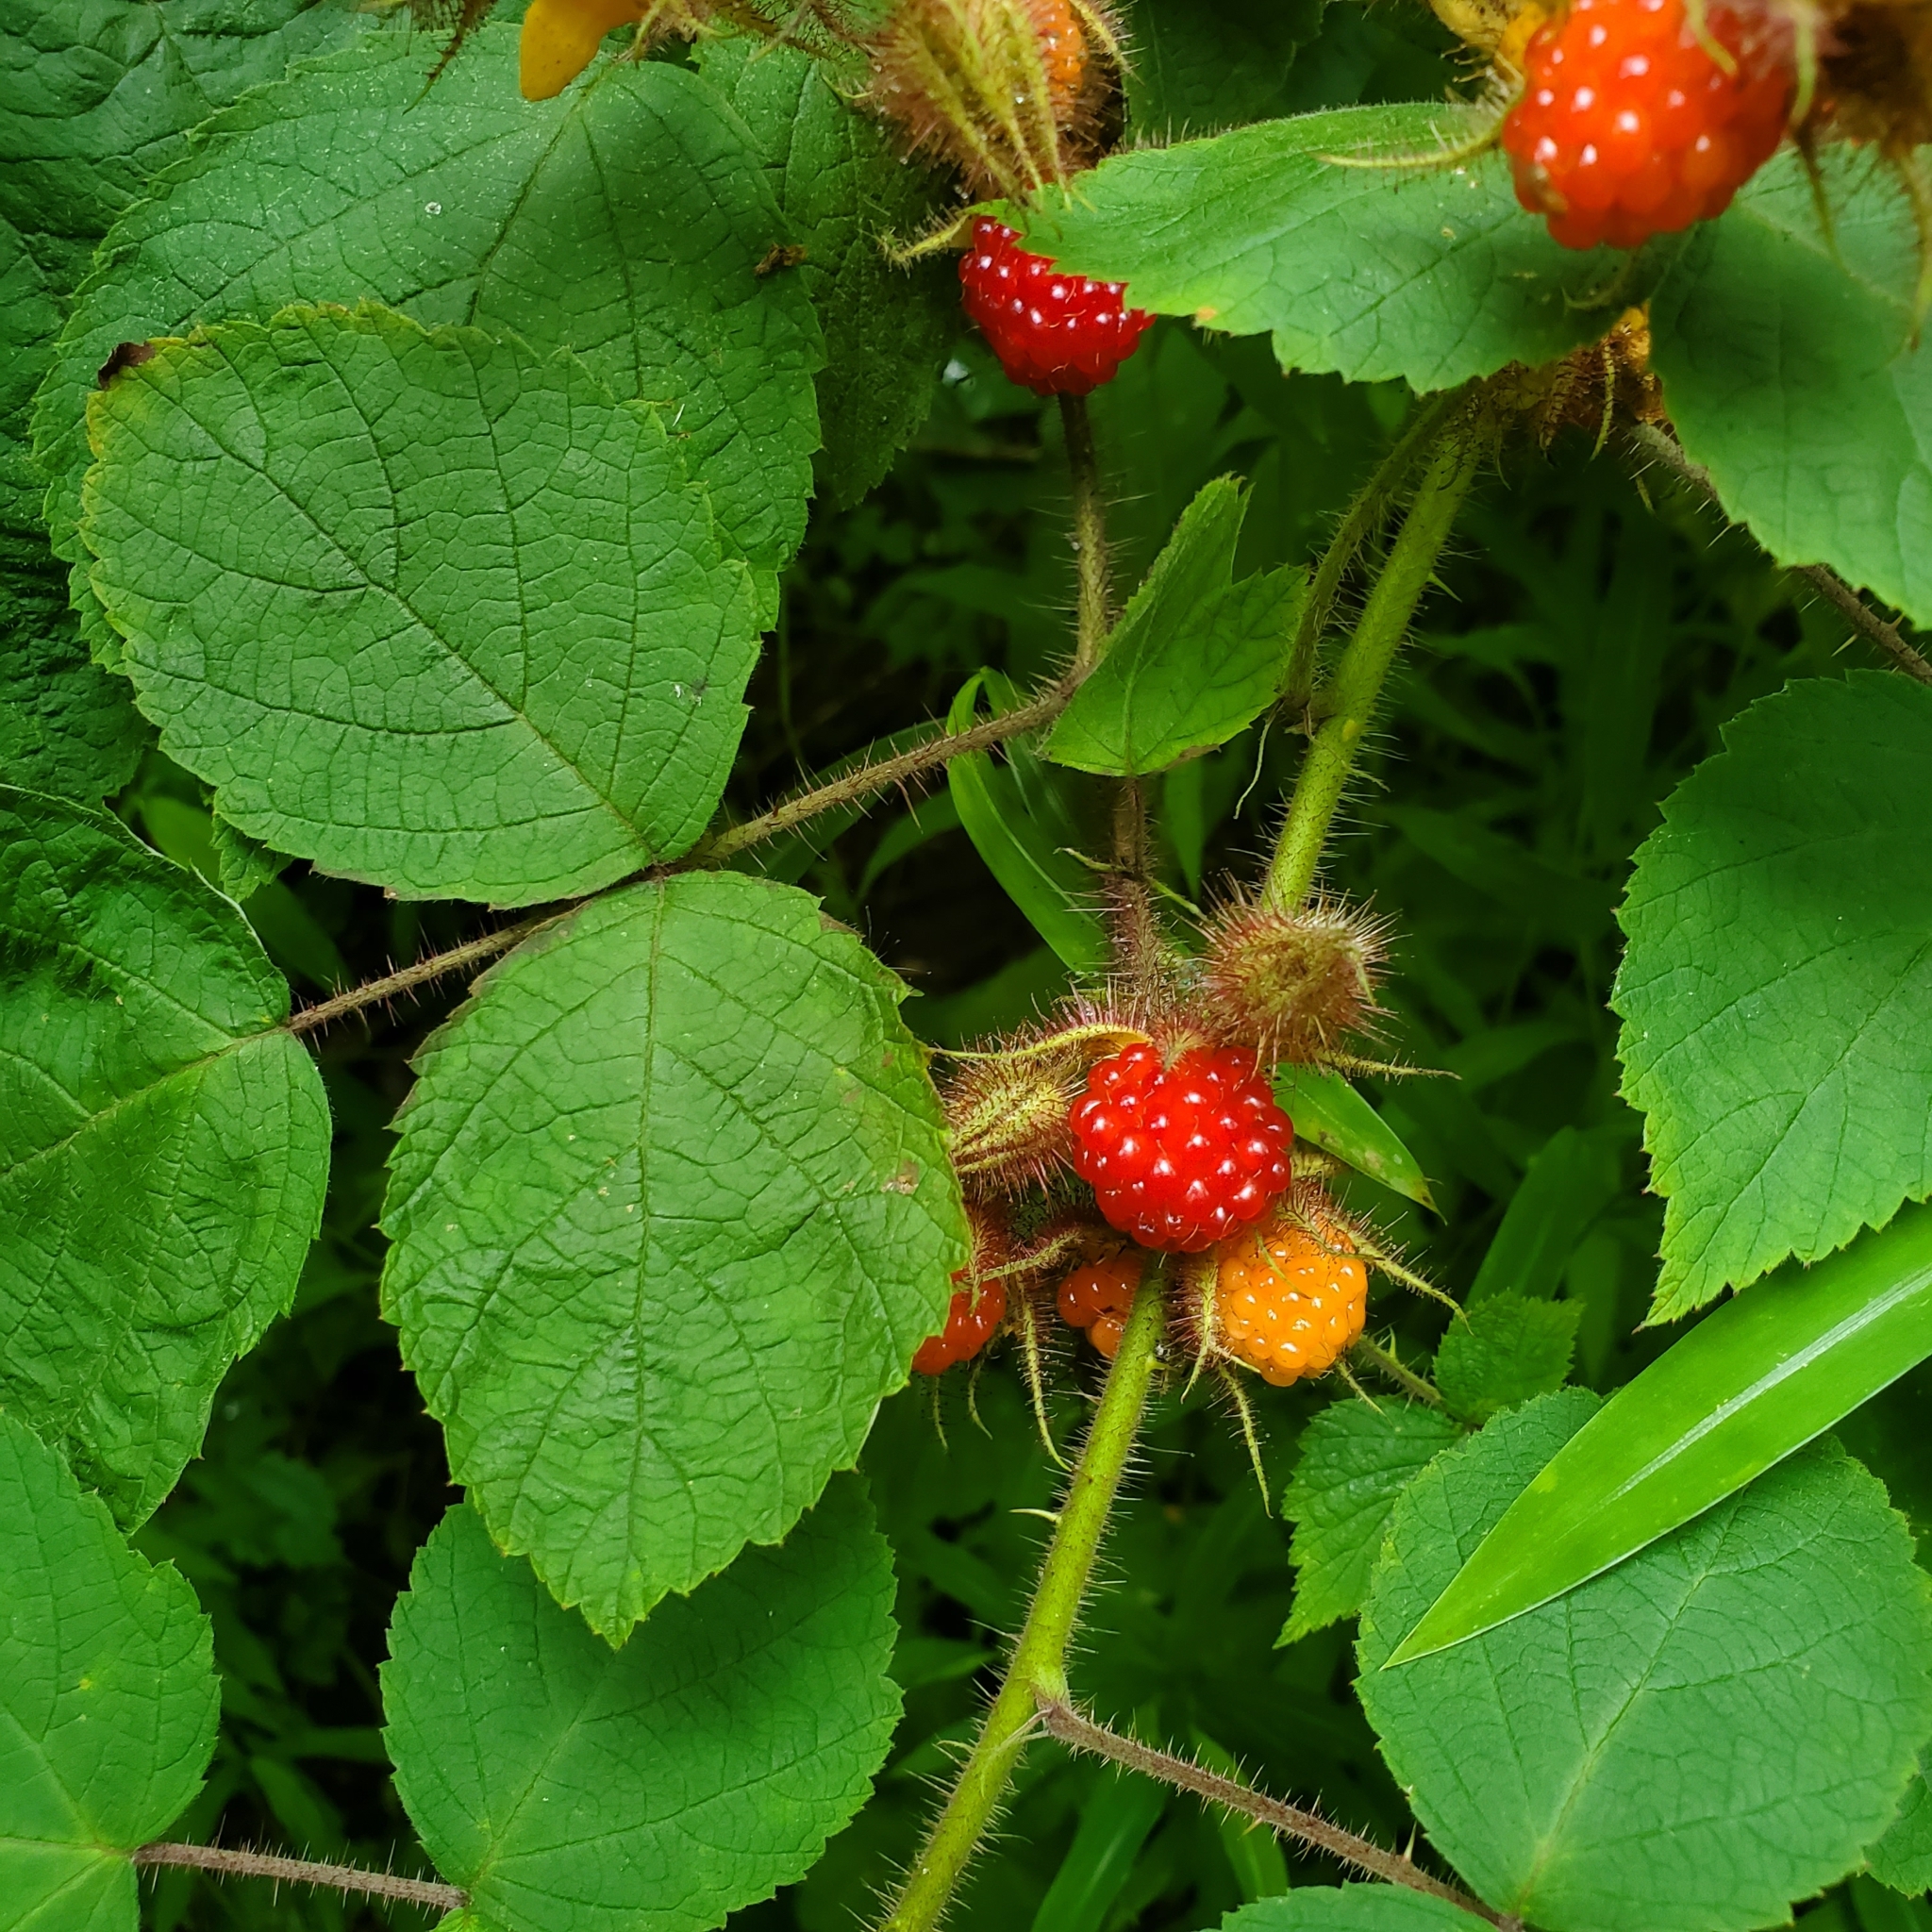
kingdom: Plantae
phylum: Tracheophyta
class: Magnoliopsida
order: Rosales
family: Rosaceae
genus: Rubus
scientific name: Rubus phoenicolasius
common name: Japanese wineberry
